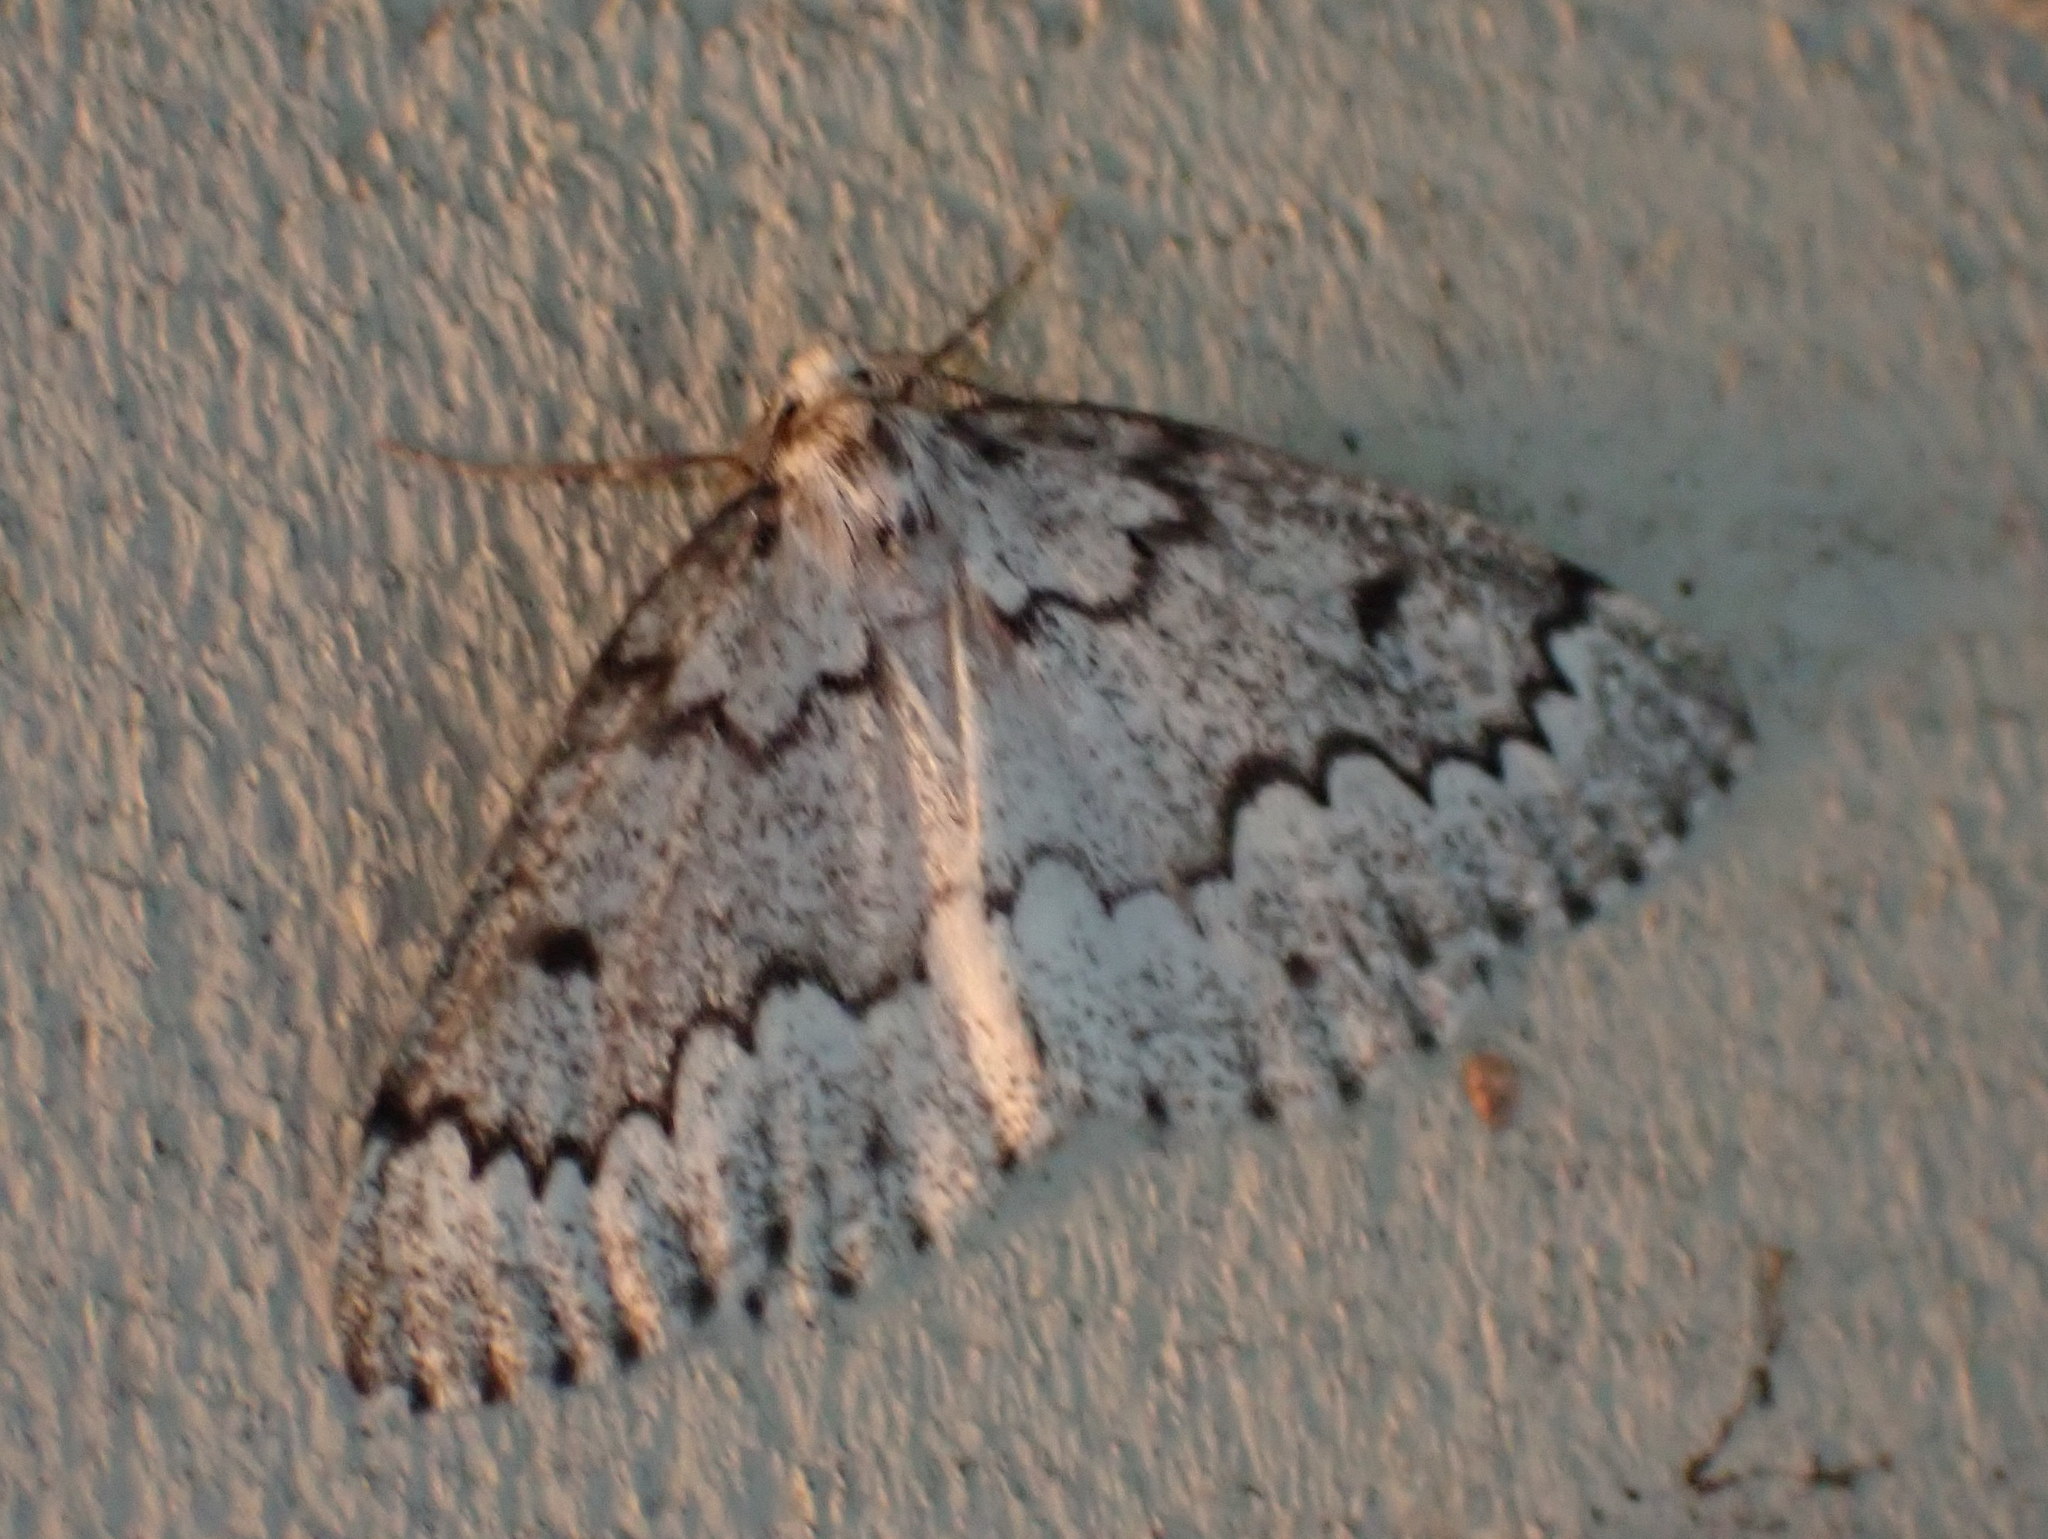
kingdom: Animalia
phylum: Arthropoda
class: Insecta
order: Lepidoptera
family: Geometridae
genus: Nepytia
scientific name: Nepytia canosaria
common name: False hemlock looper
